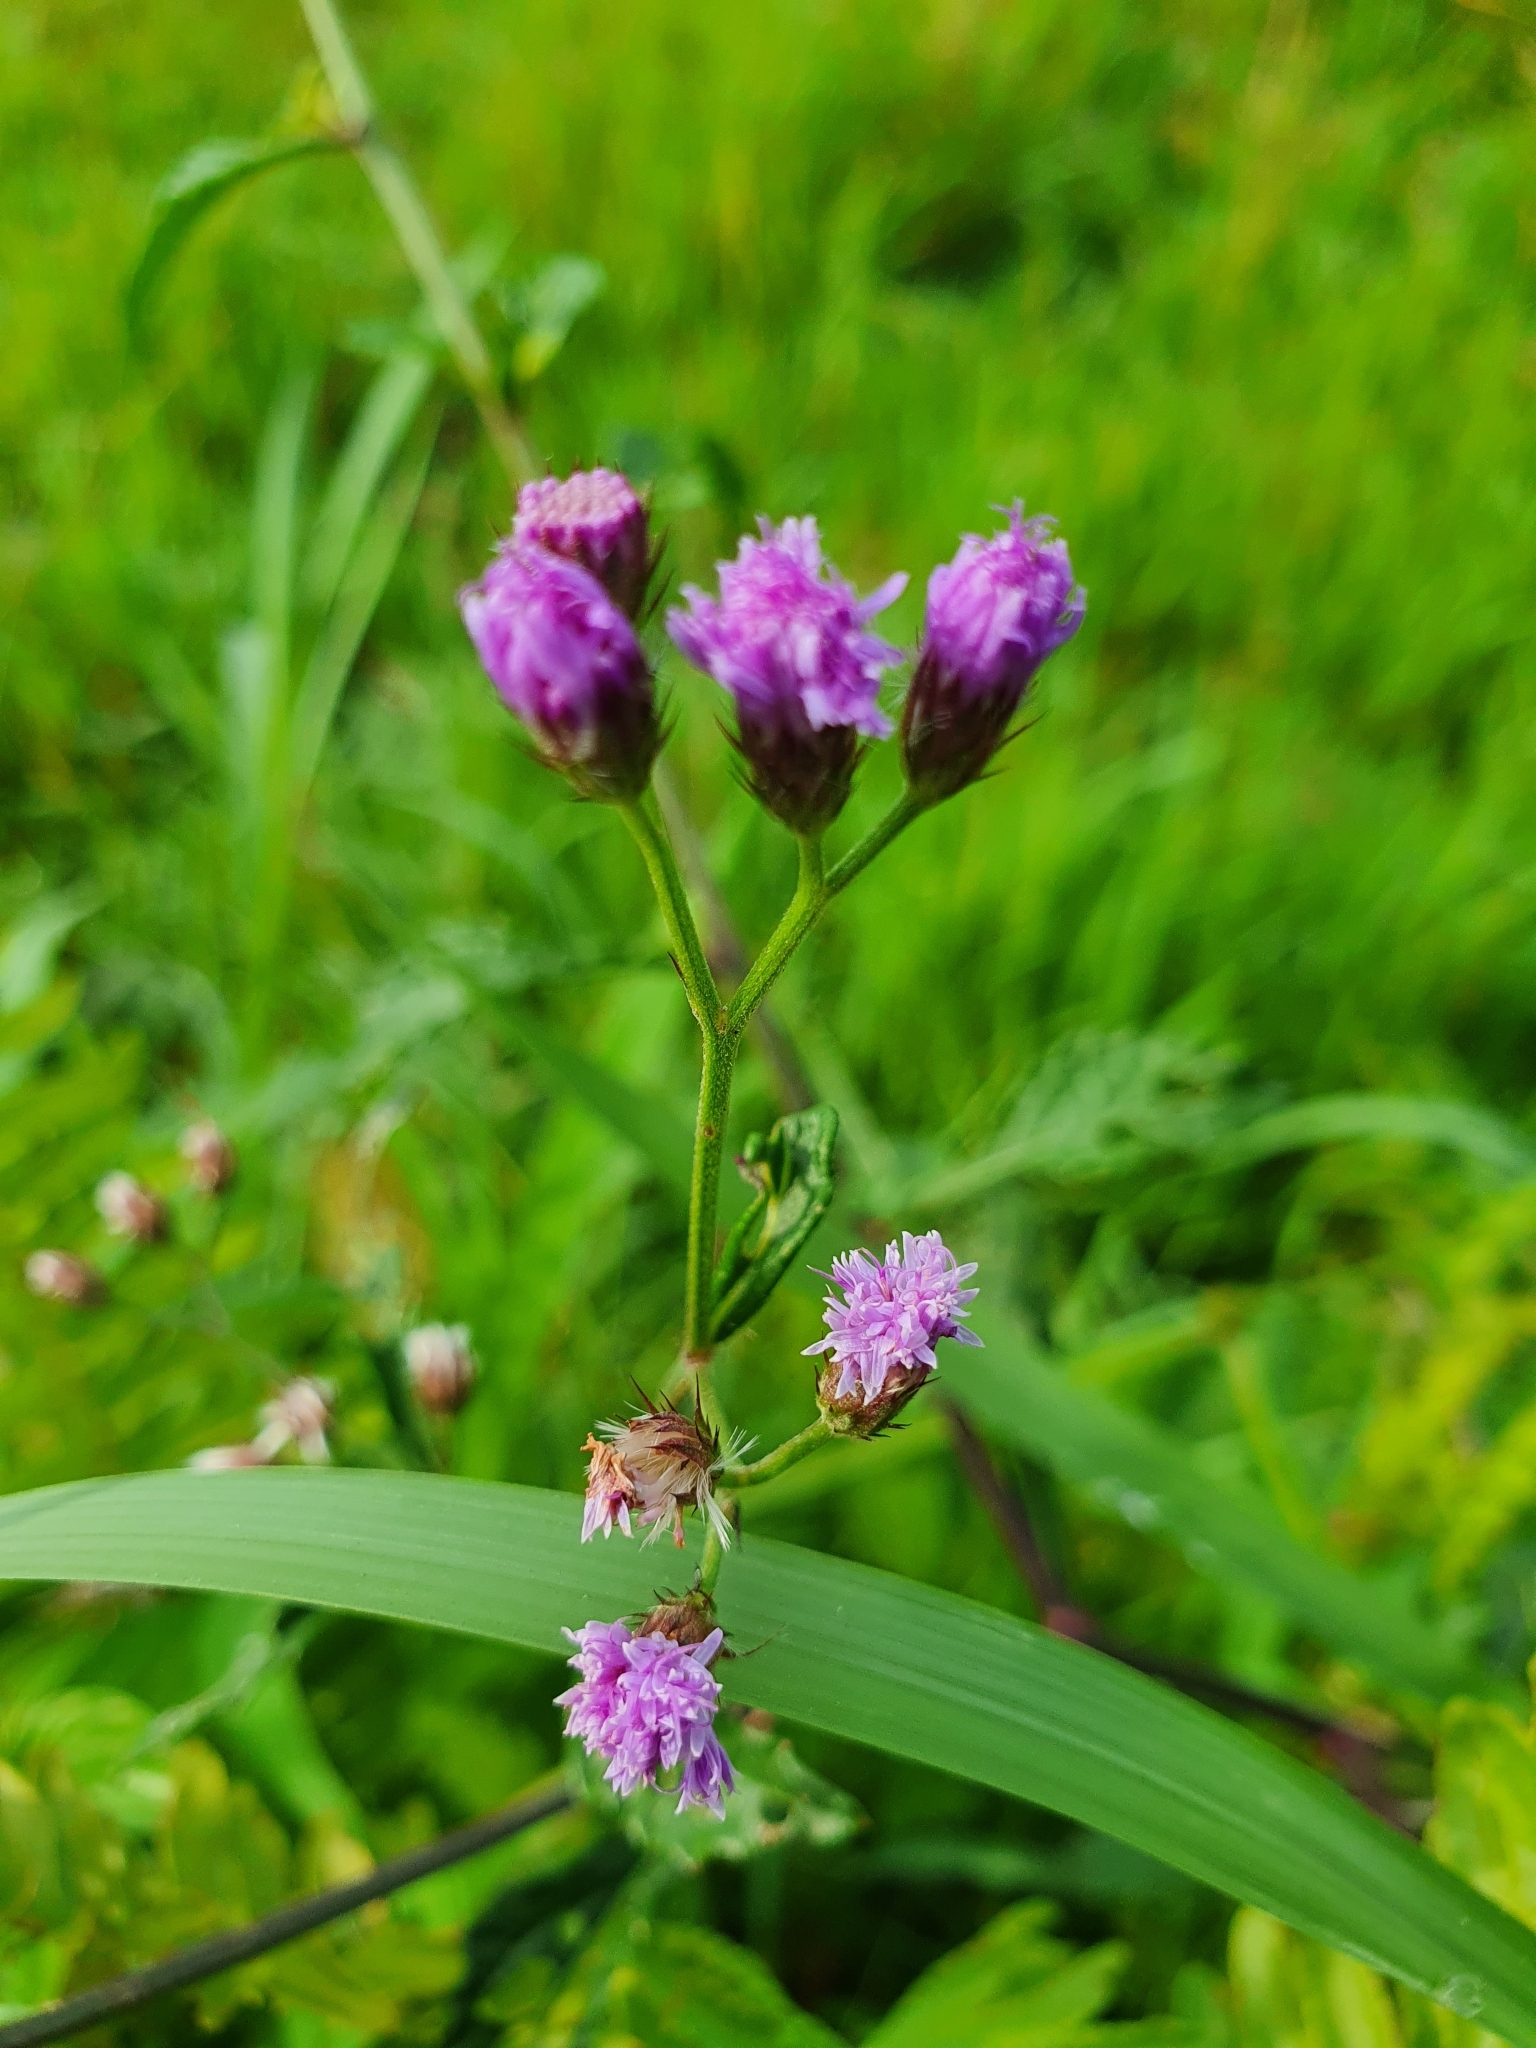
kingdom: Plantae
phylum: Tracheophyta
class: Magnoliopsida
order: Asterales
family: Asteraceae
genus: Cyanthillium
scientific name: Cyanthillium cinereum
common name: Little ironweed
